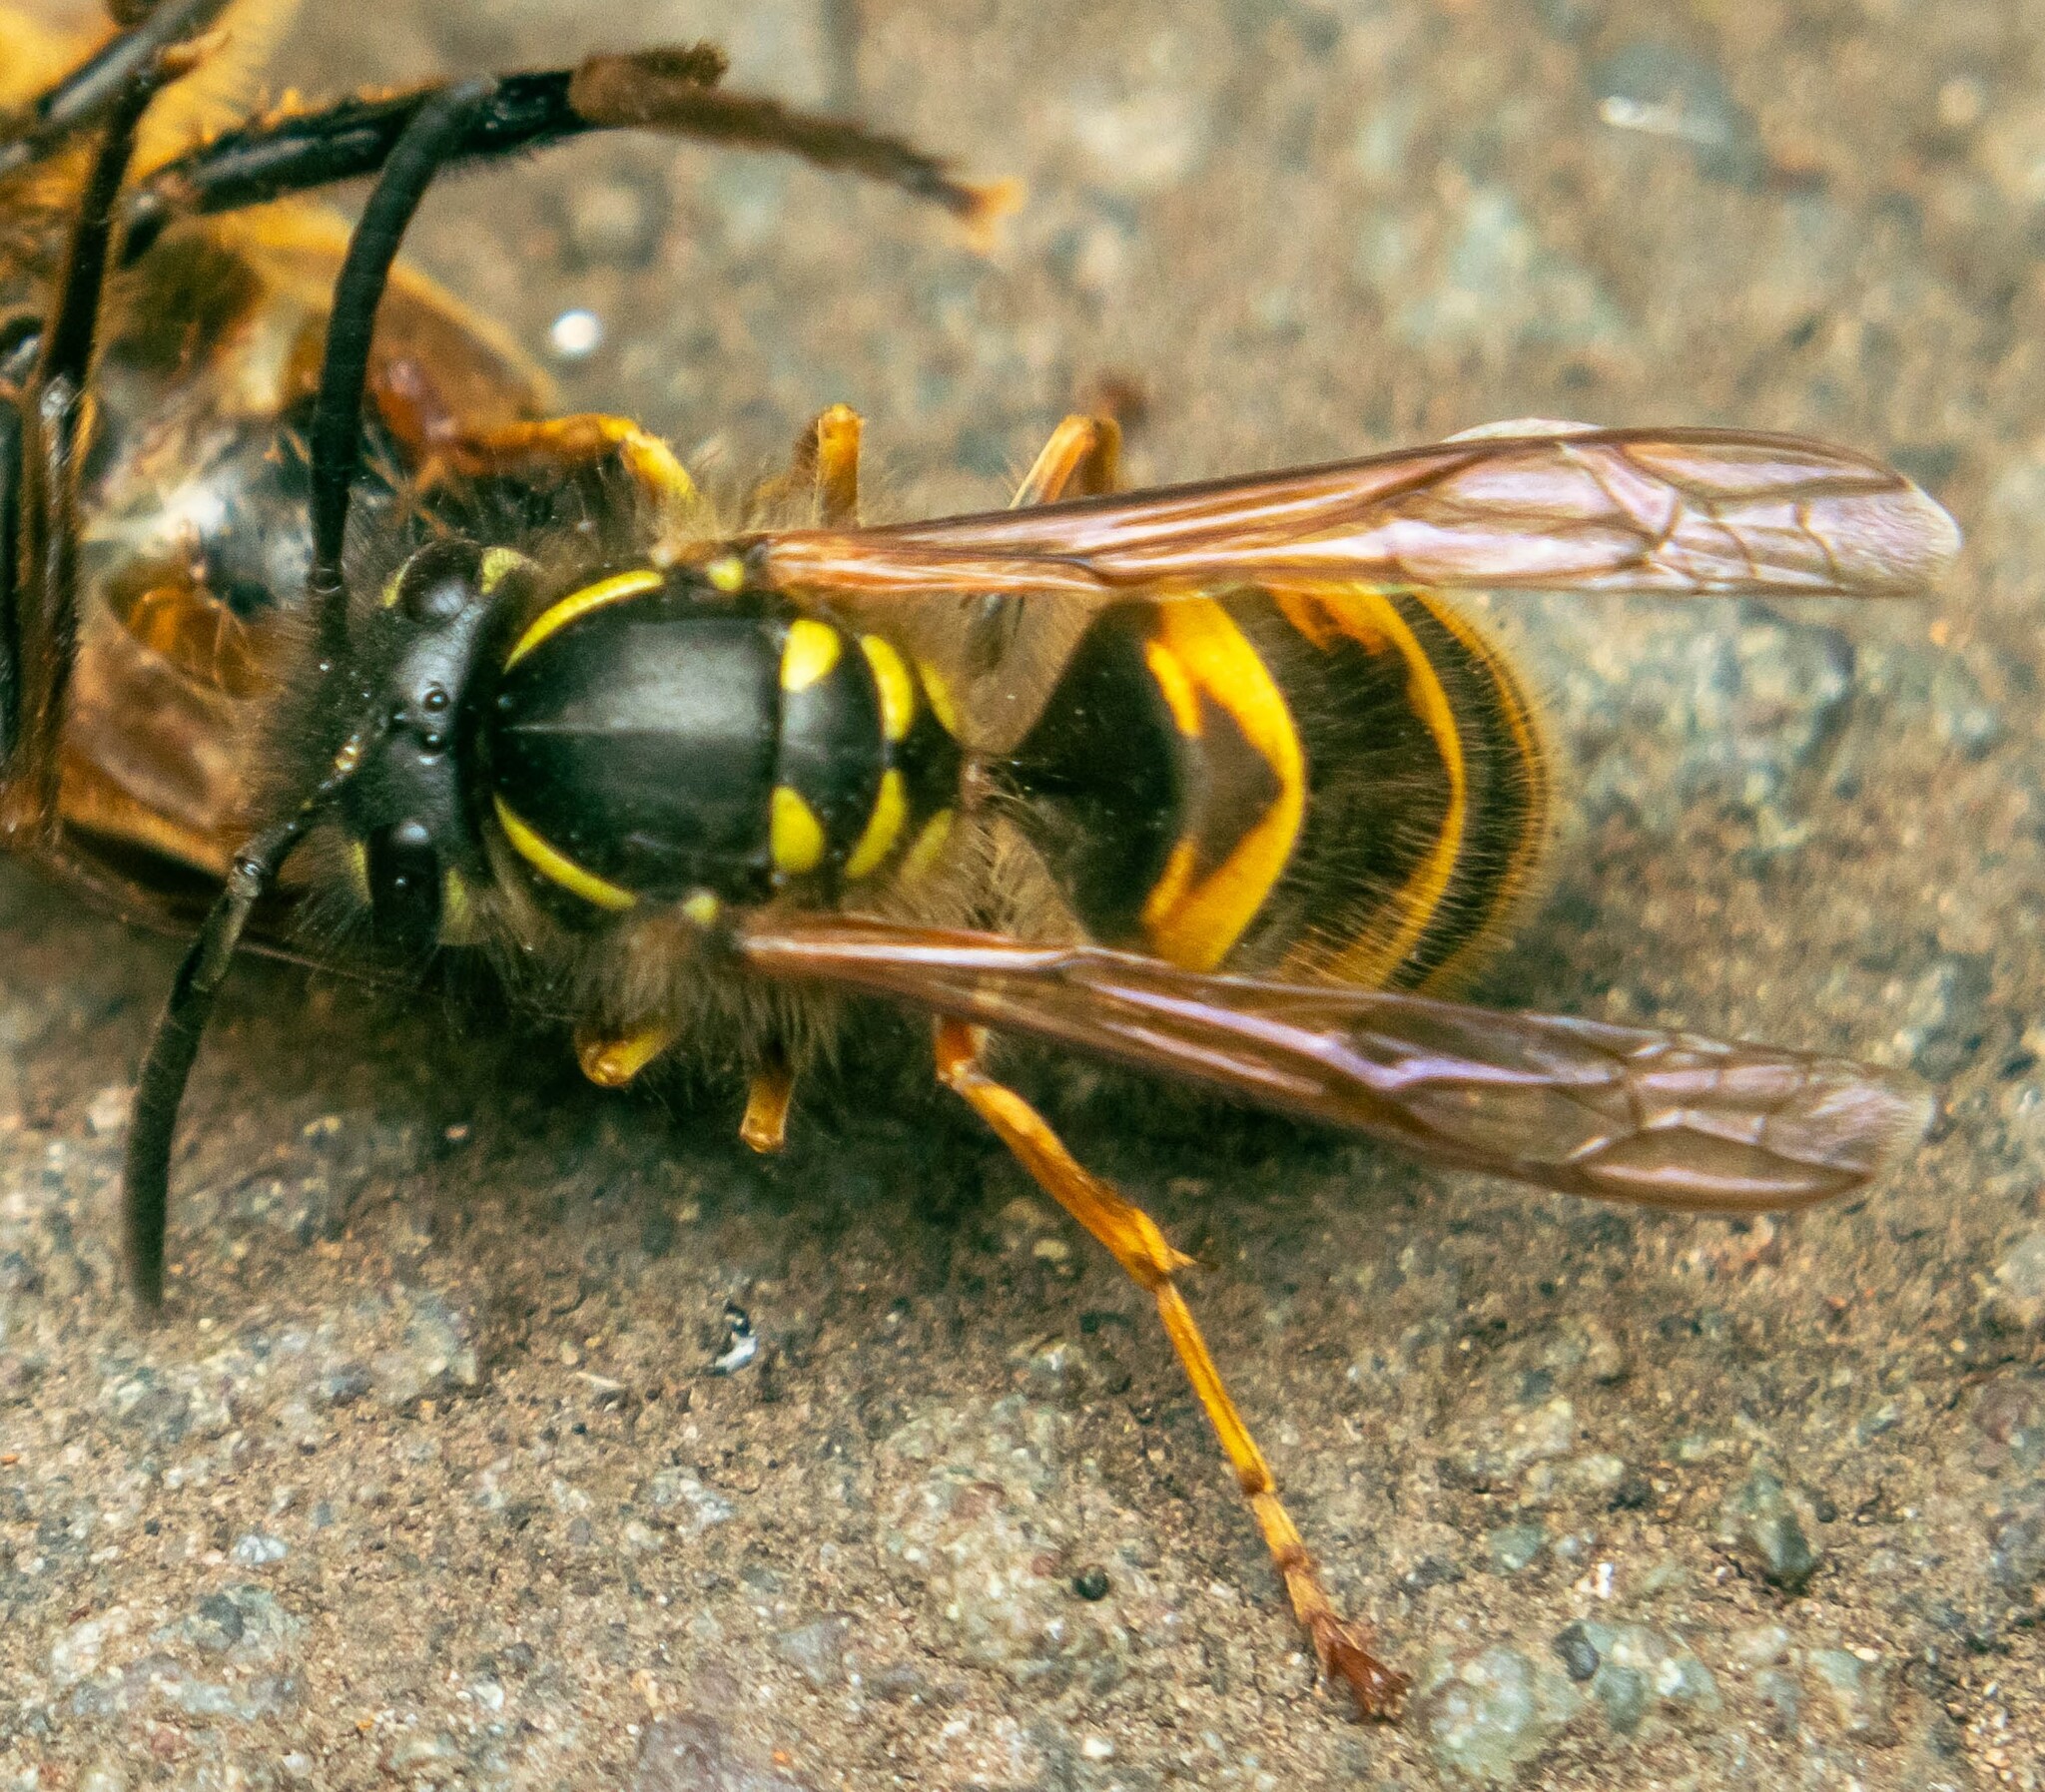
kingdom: Animalia
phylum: Arthropoda
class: Insecta
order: Hymenoptera
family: Vespidae
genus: Vespula
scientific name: Vespula vulgaris
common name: Common wasp
